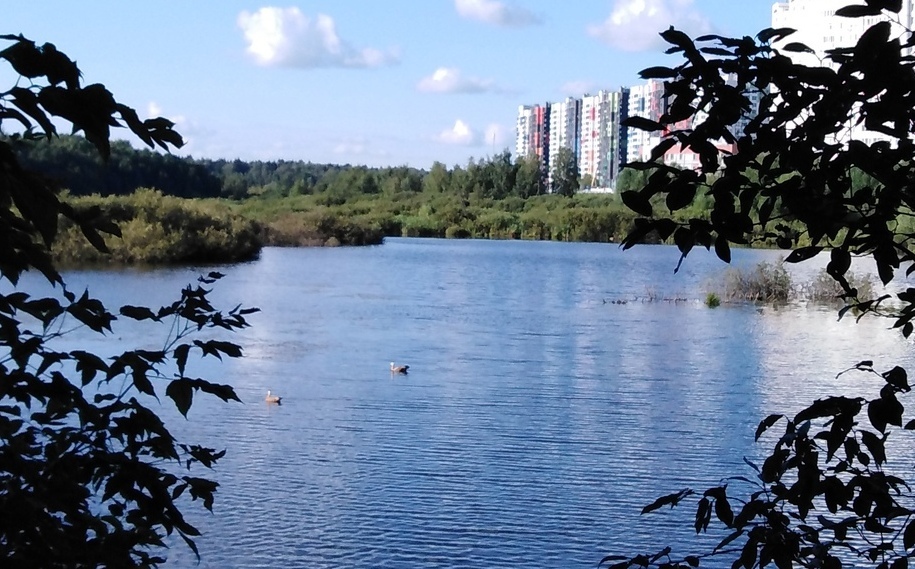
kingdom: Animalia
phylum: Chordata
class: Aves
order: Anseriformes
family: Anatidae
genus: Tadorna
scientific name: Tadorna ferruginea
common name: Ruddy shelduck
